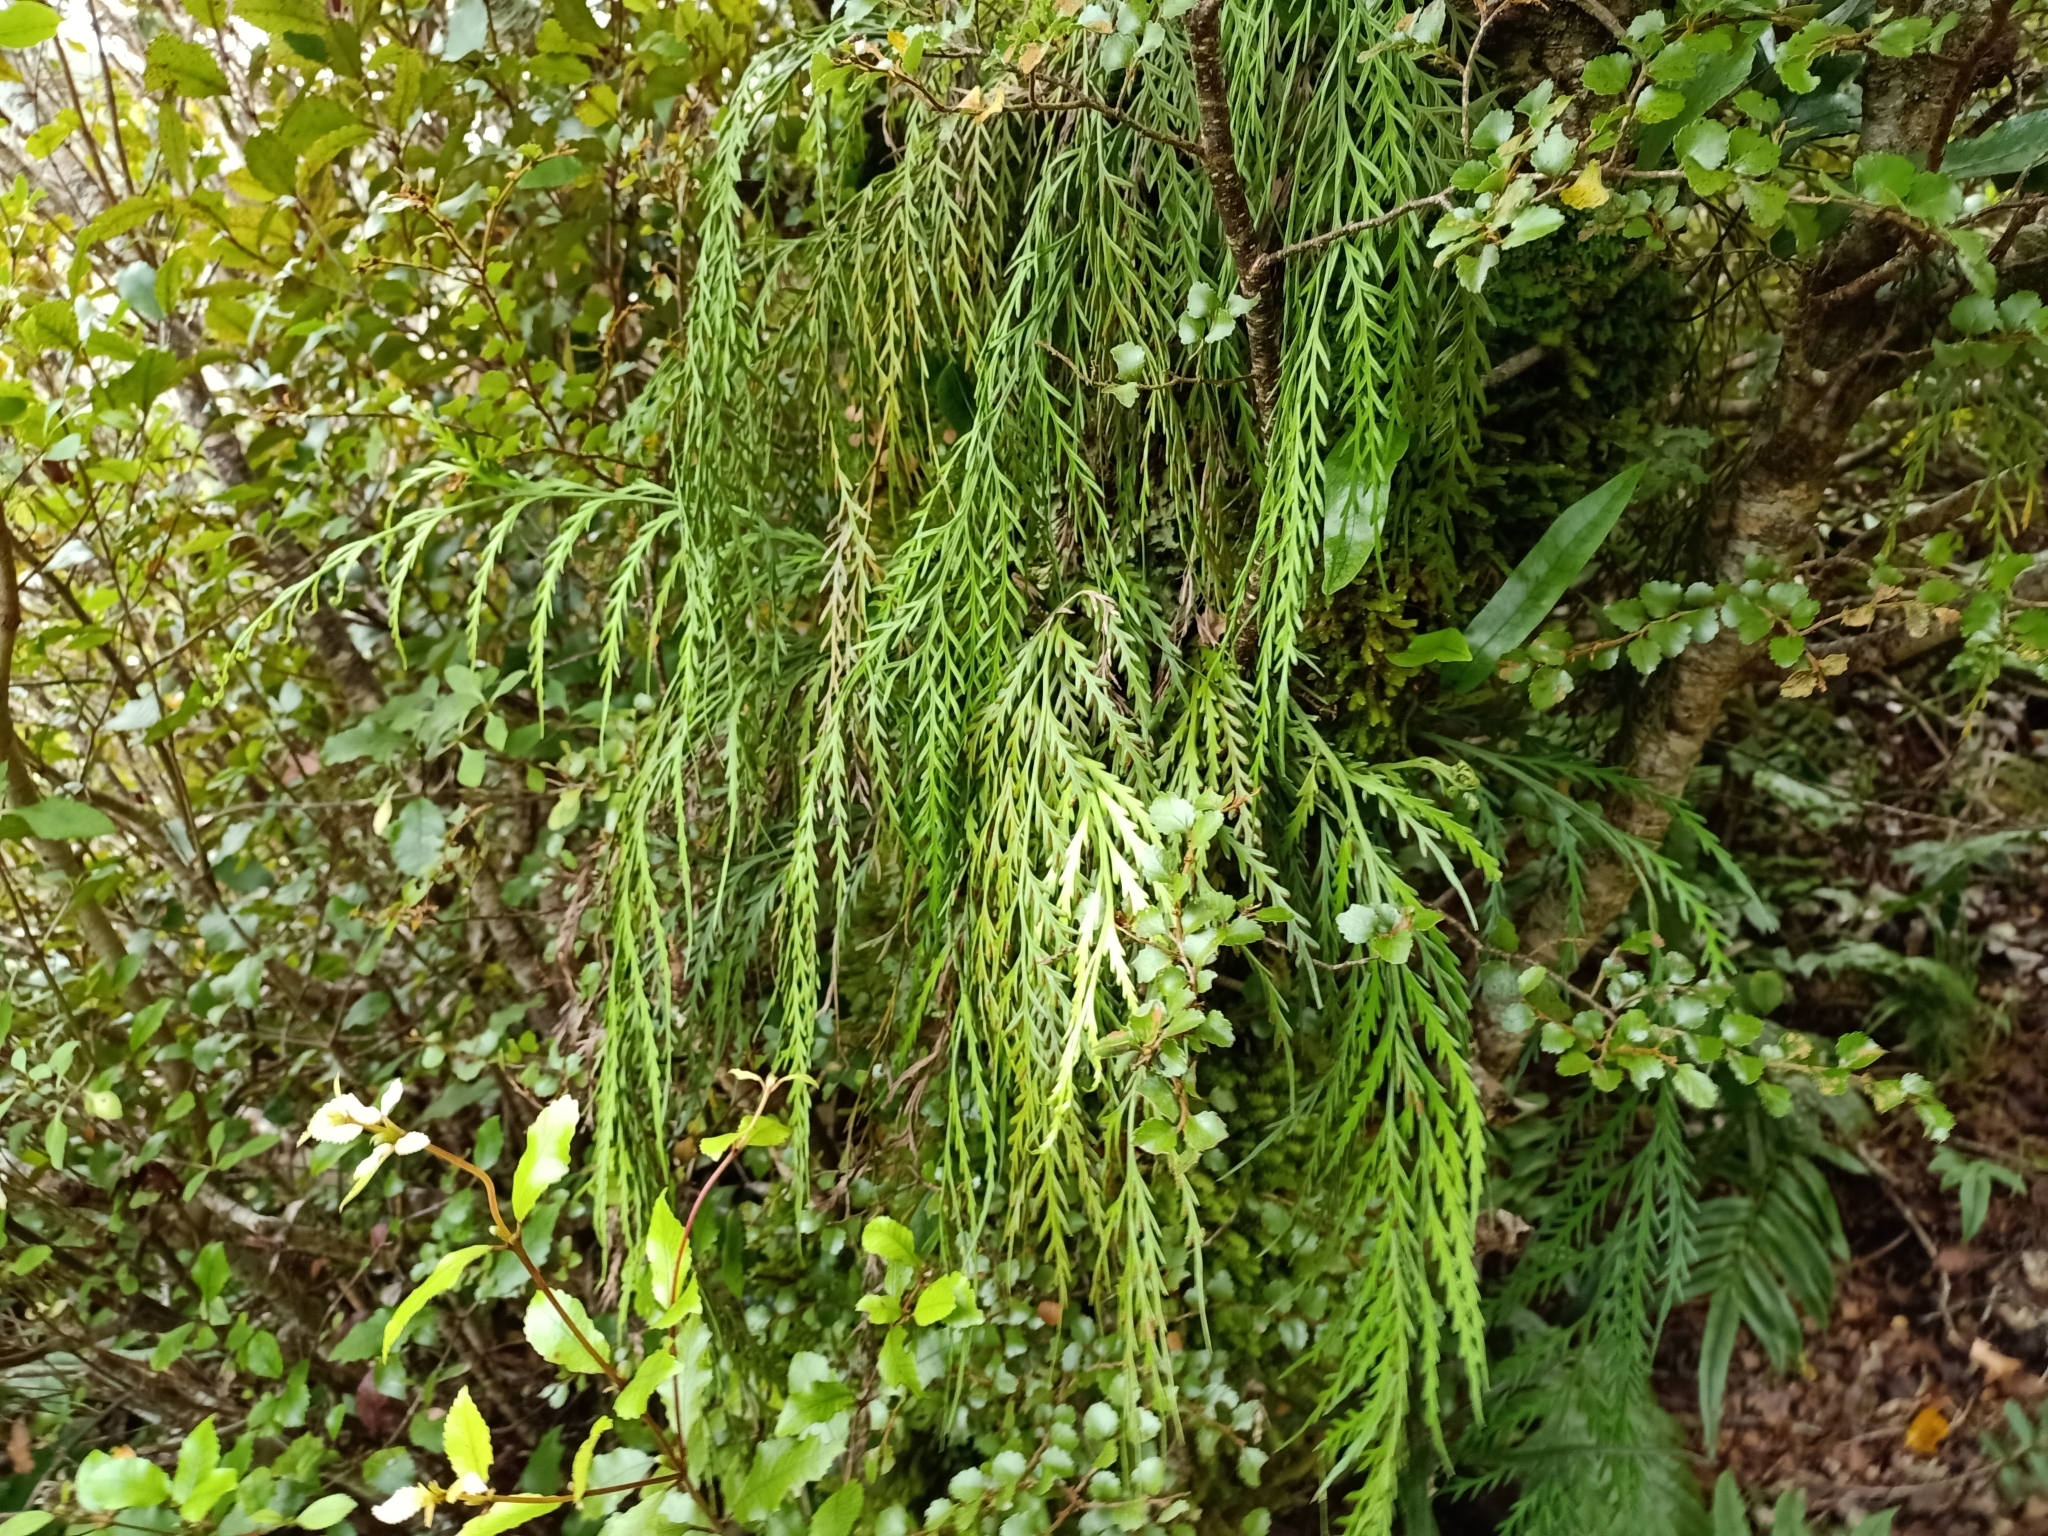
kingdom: Plantae
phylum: Tracheophyta
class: Polypodiopsida
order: Polypodiales
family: Aspleniaceae
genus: Asplenium
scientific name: Asplenium flaccidum
